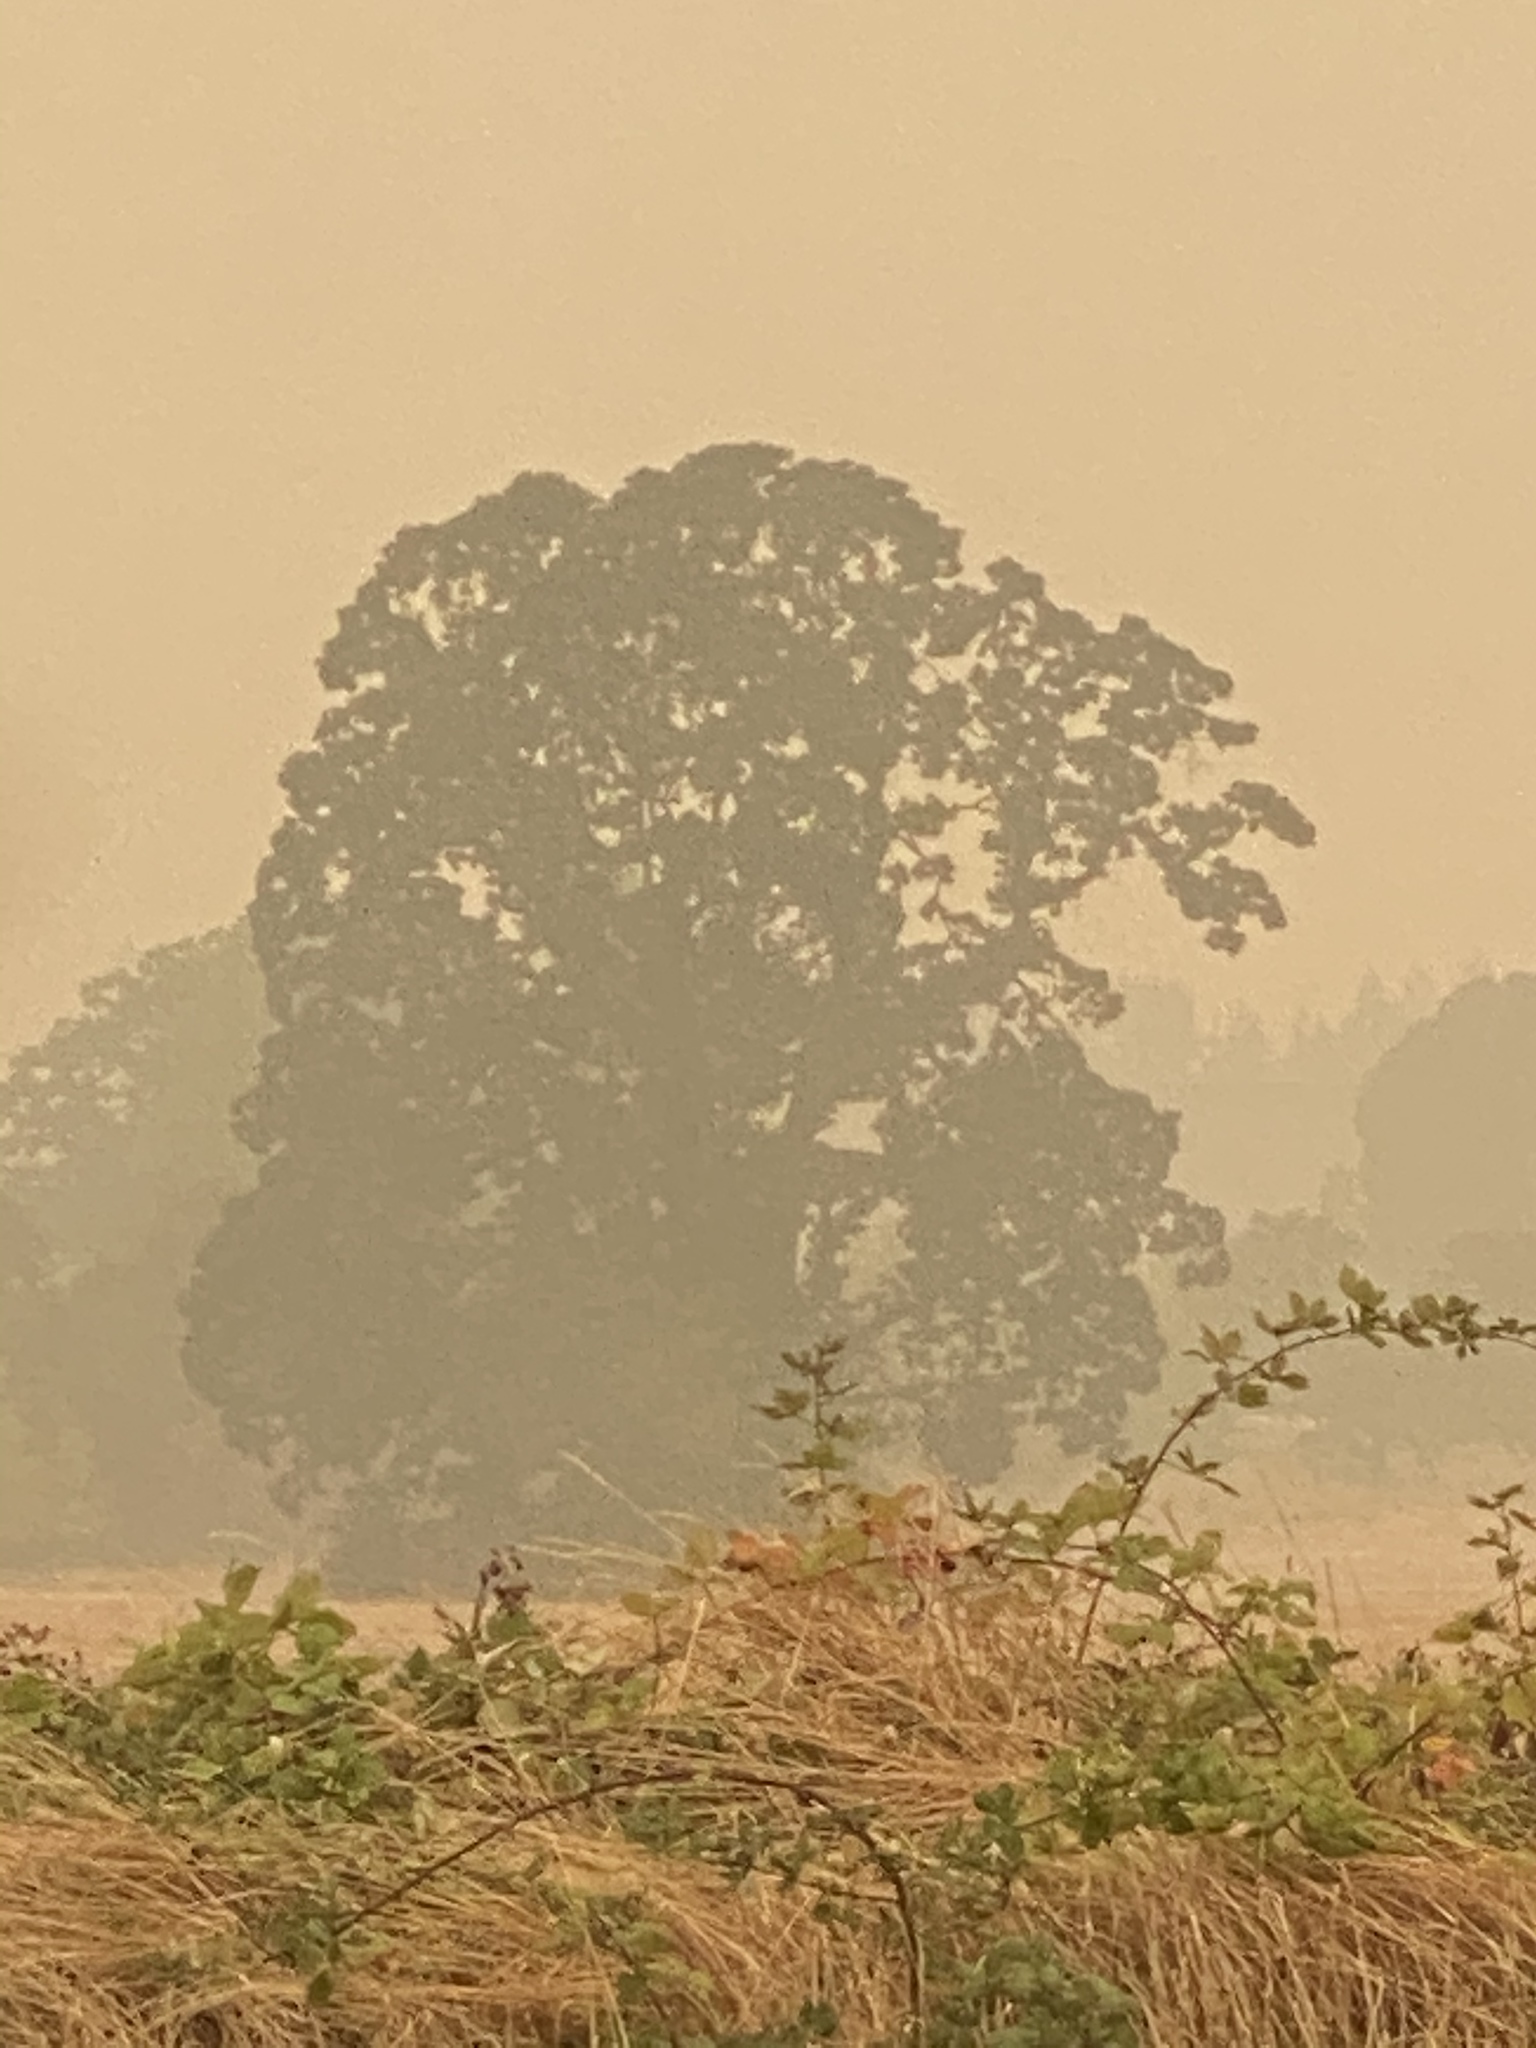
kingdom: Plantae
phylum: Tracheophyta
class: Magnoliopsida
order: Fagales
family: Fagaceae
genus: Quercus
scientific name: Quercus garryana
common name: Garry oak
